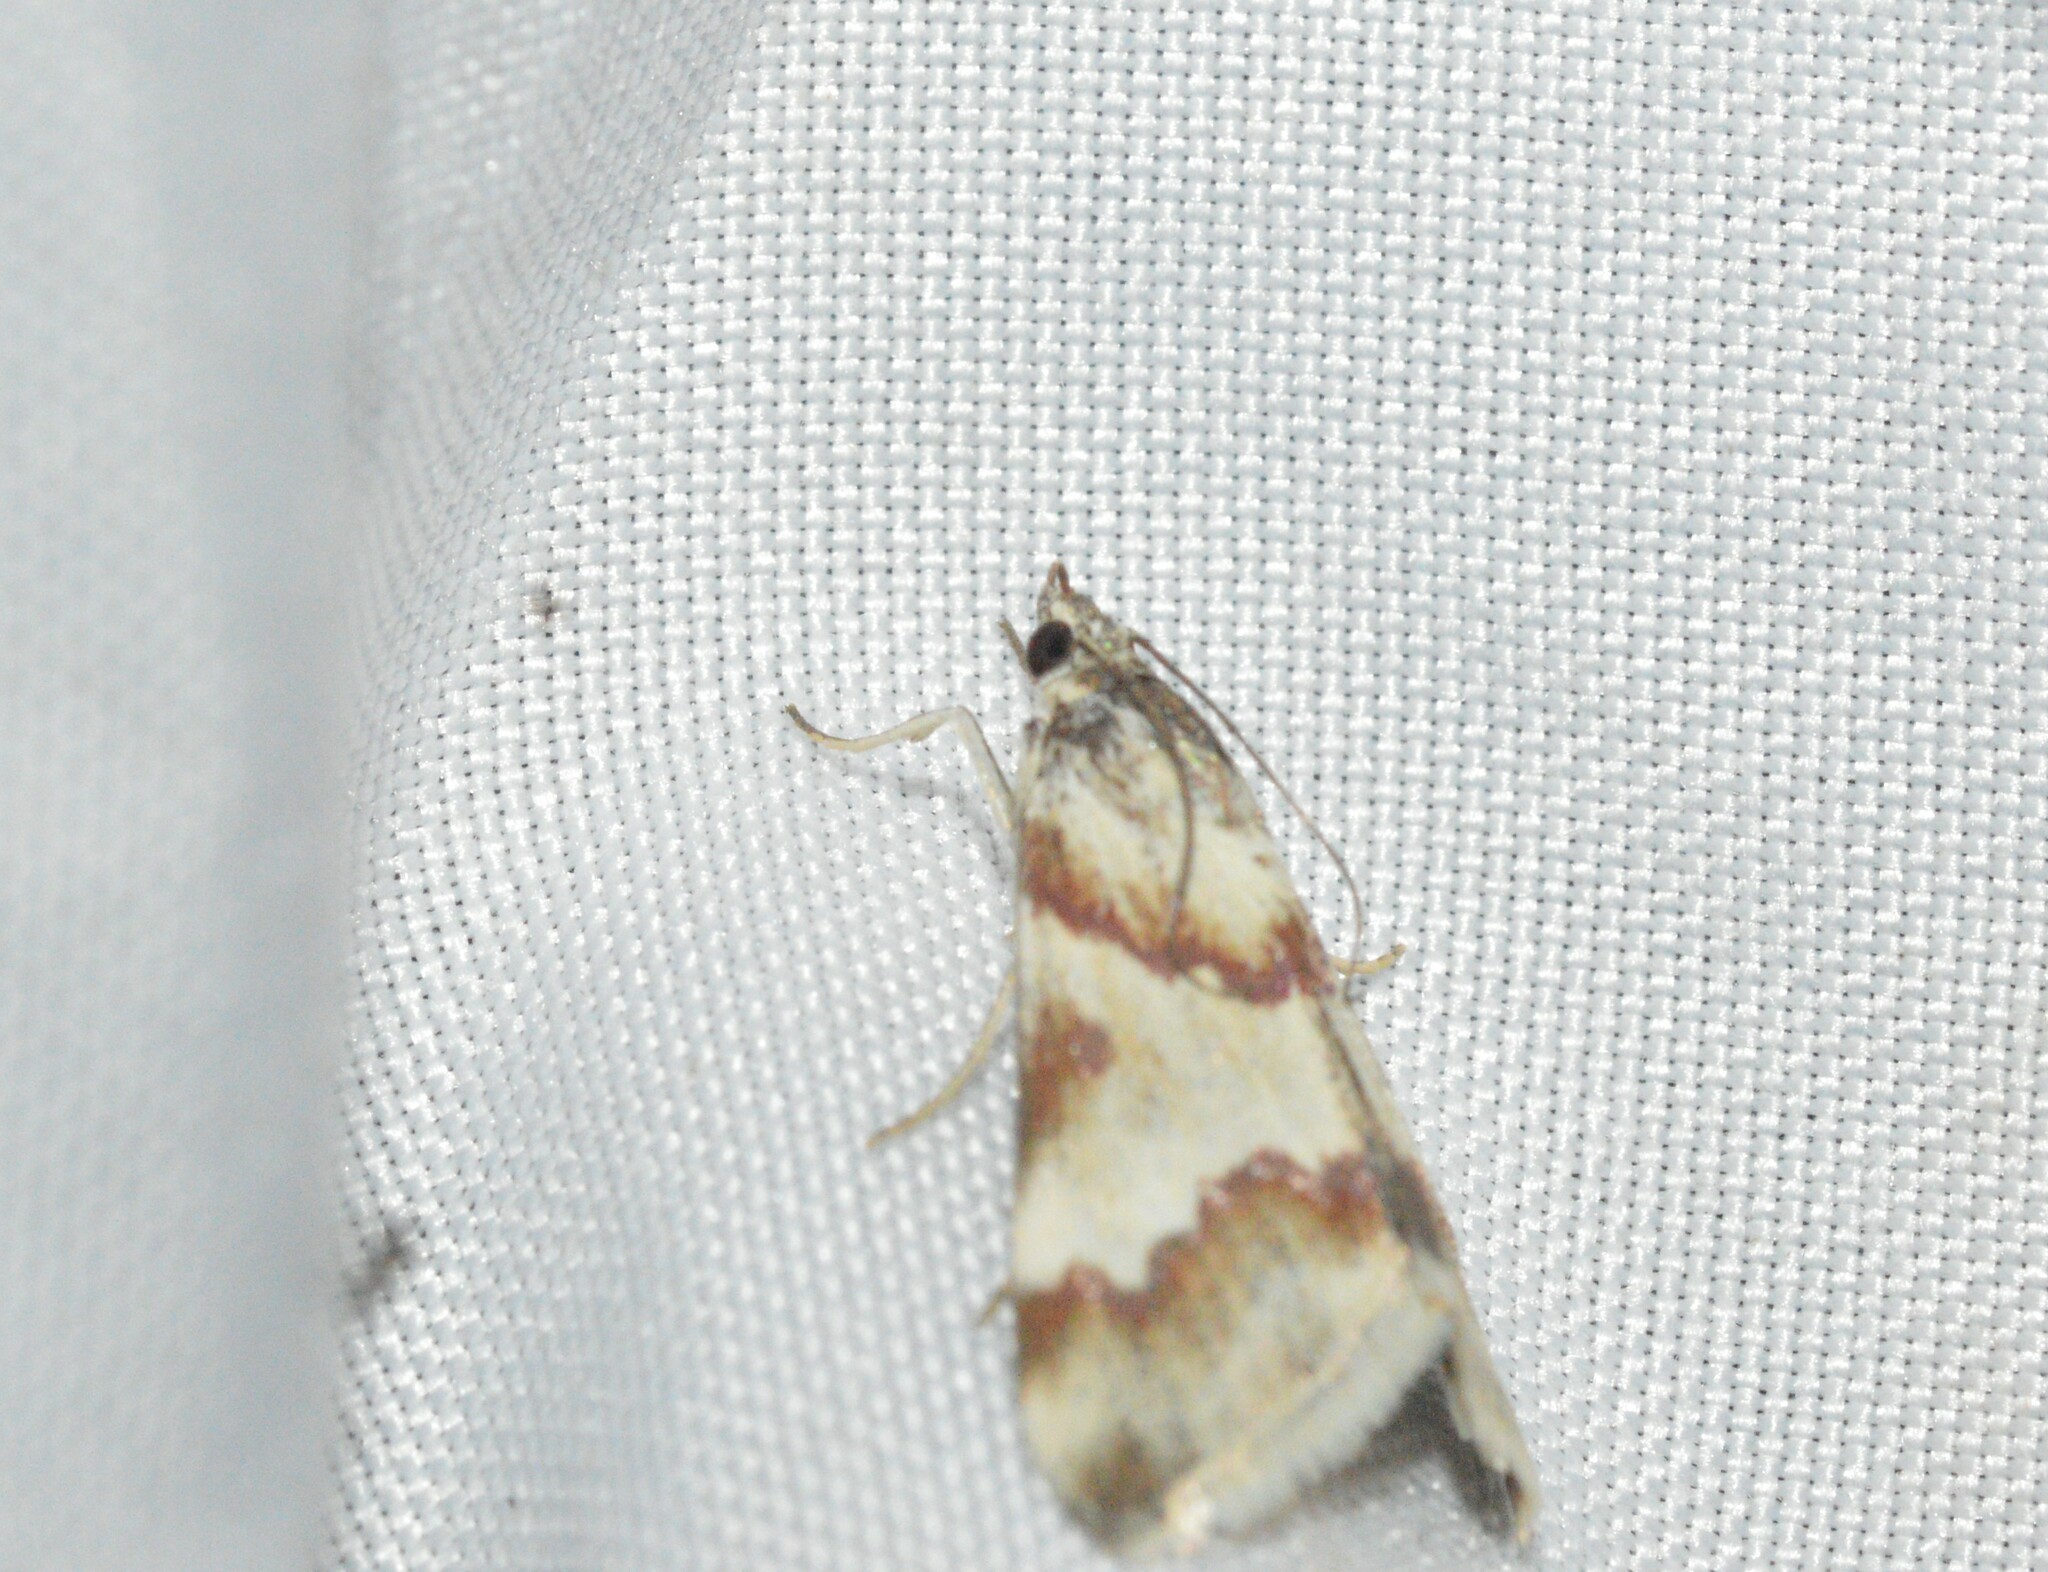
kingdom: Animalia
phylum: Arthropoda
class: Insecta
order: Lepidoptera
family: Crambidae
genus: Noctuelia
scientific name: Noctuelia Mimoschinia rufofascialis
